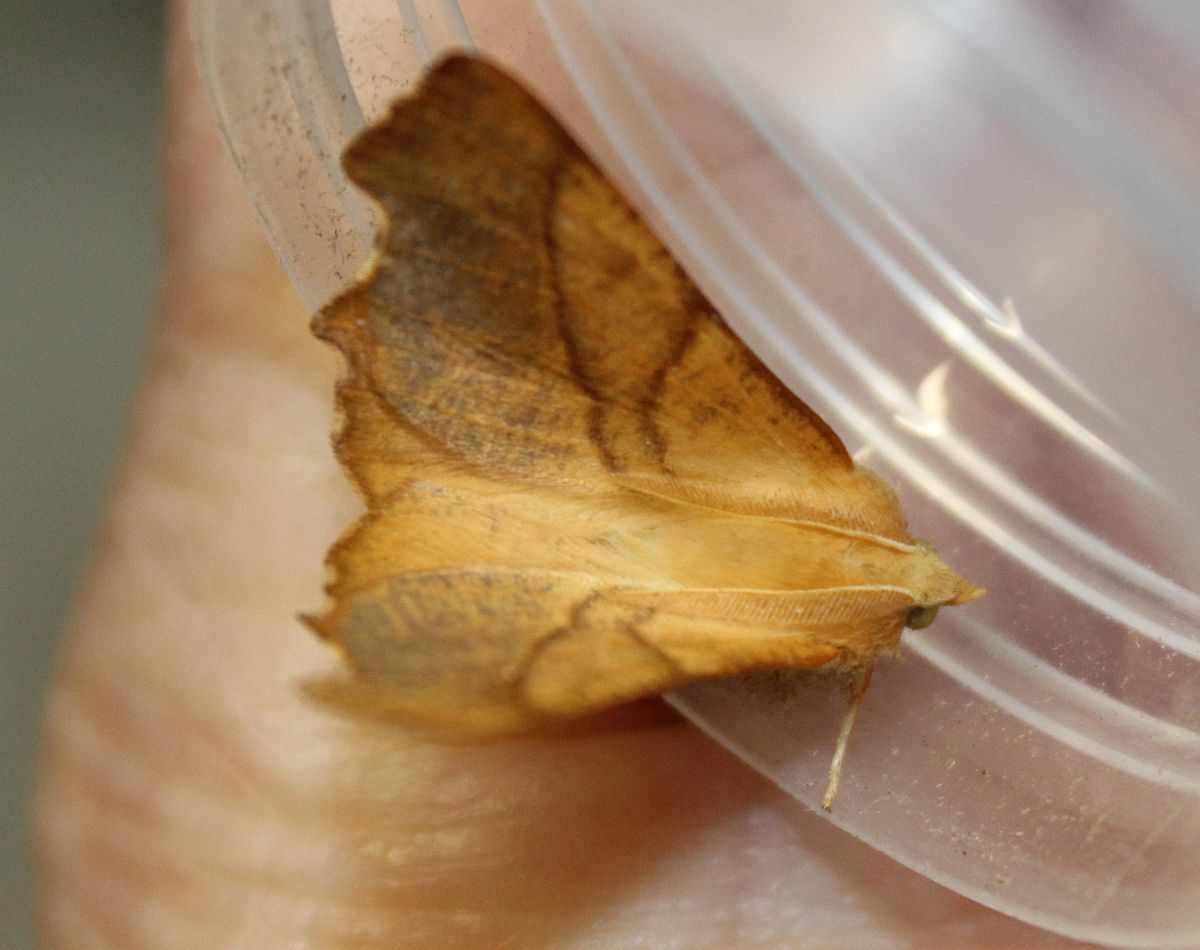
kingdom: Animalia
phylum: Arthropoda
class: Insecta
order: Lepidoptera
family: Geometridae
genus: Ennomos
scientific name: Ennomos fuscantaria
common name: Dusky thorn
